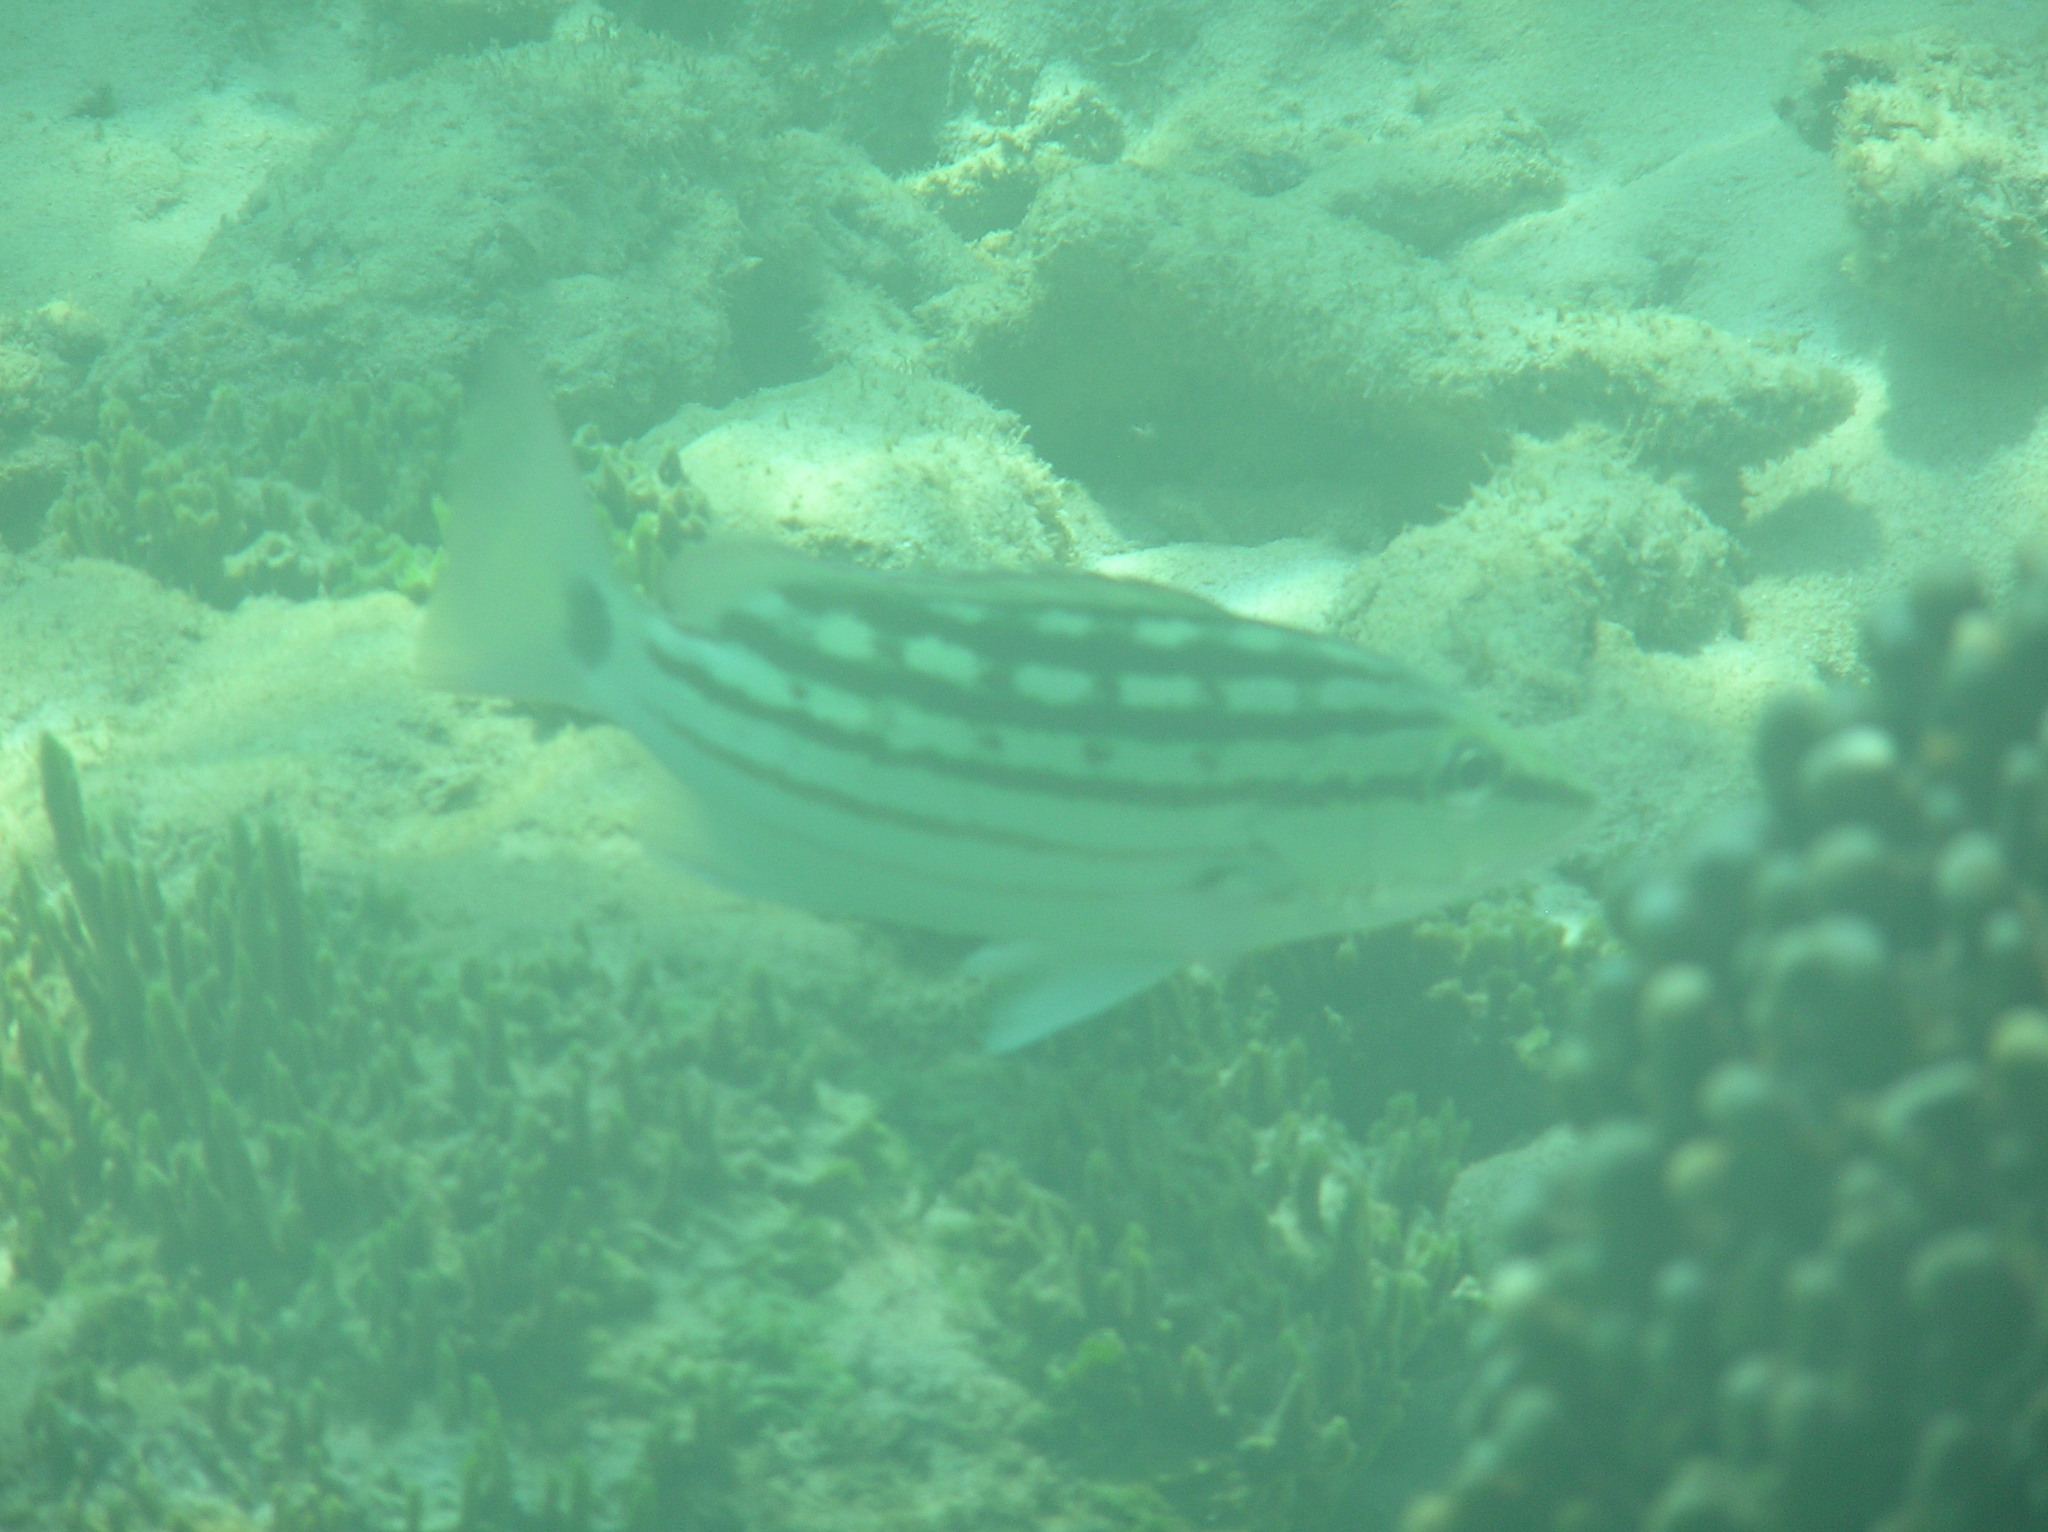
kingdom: Animalia
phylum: Chordata
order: Perciformes
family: Lutjanidae
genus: Lutjanus
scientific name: Lutjanus decussatus
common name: Checkered snapper
